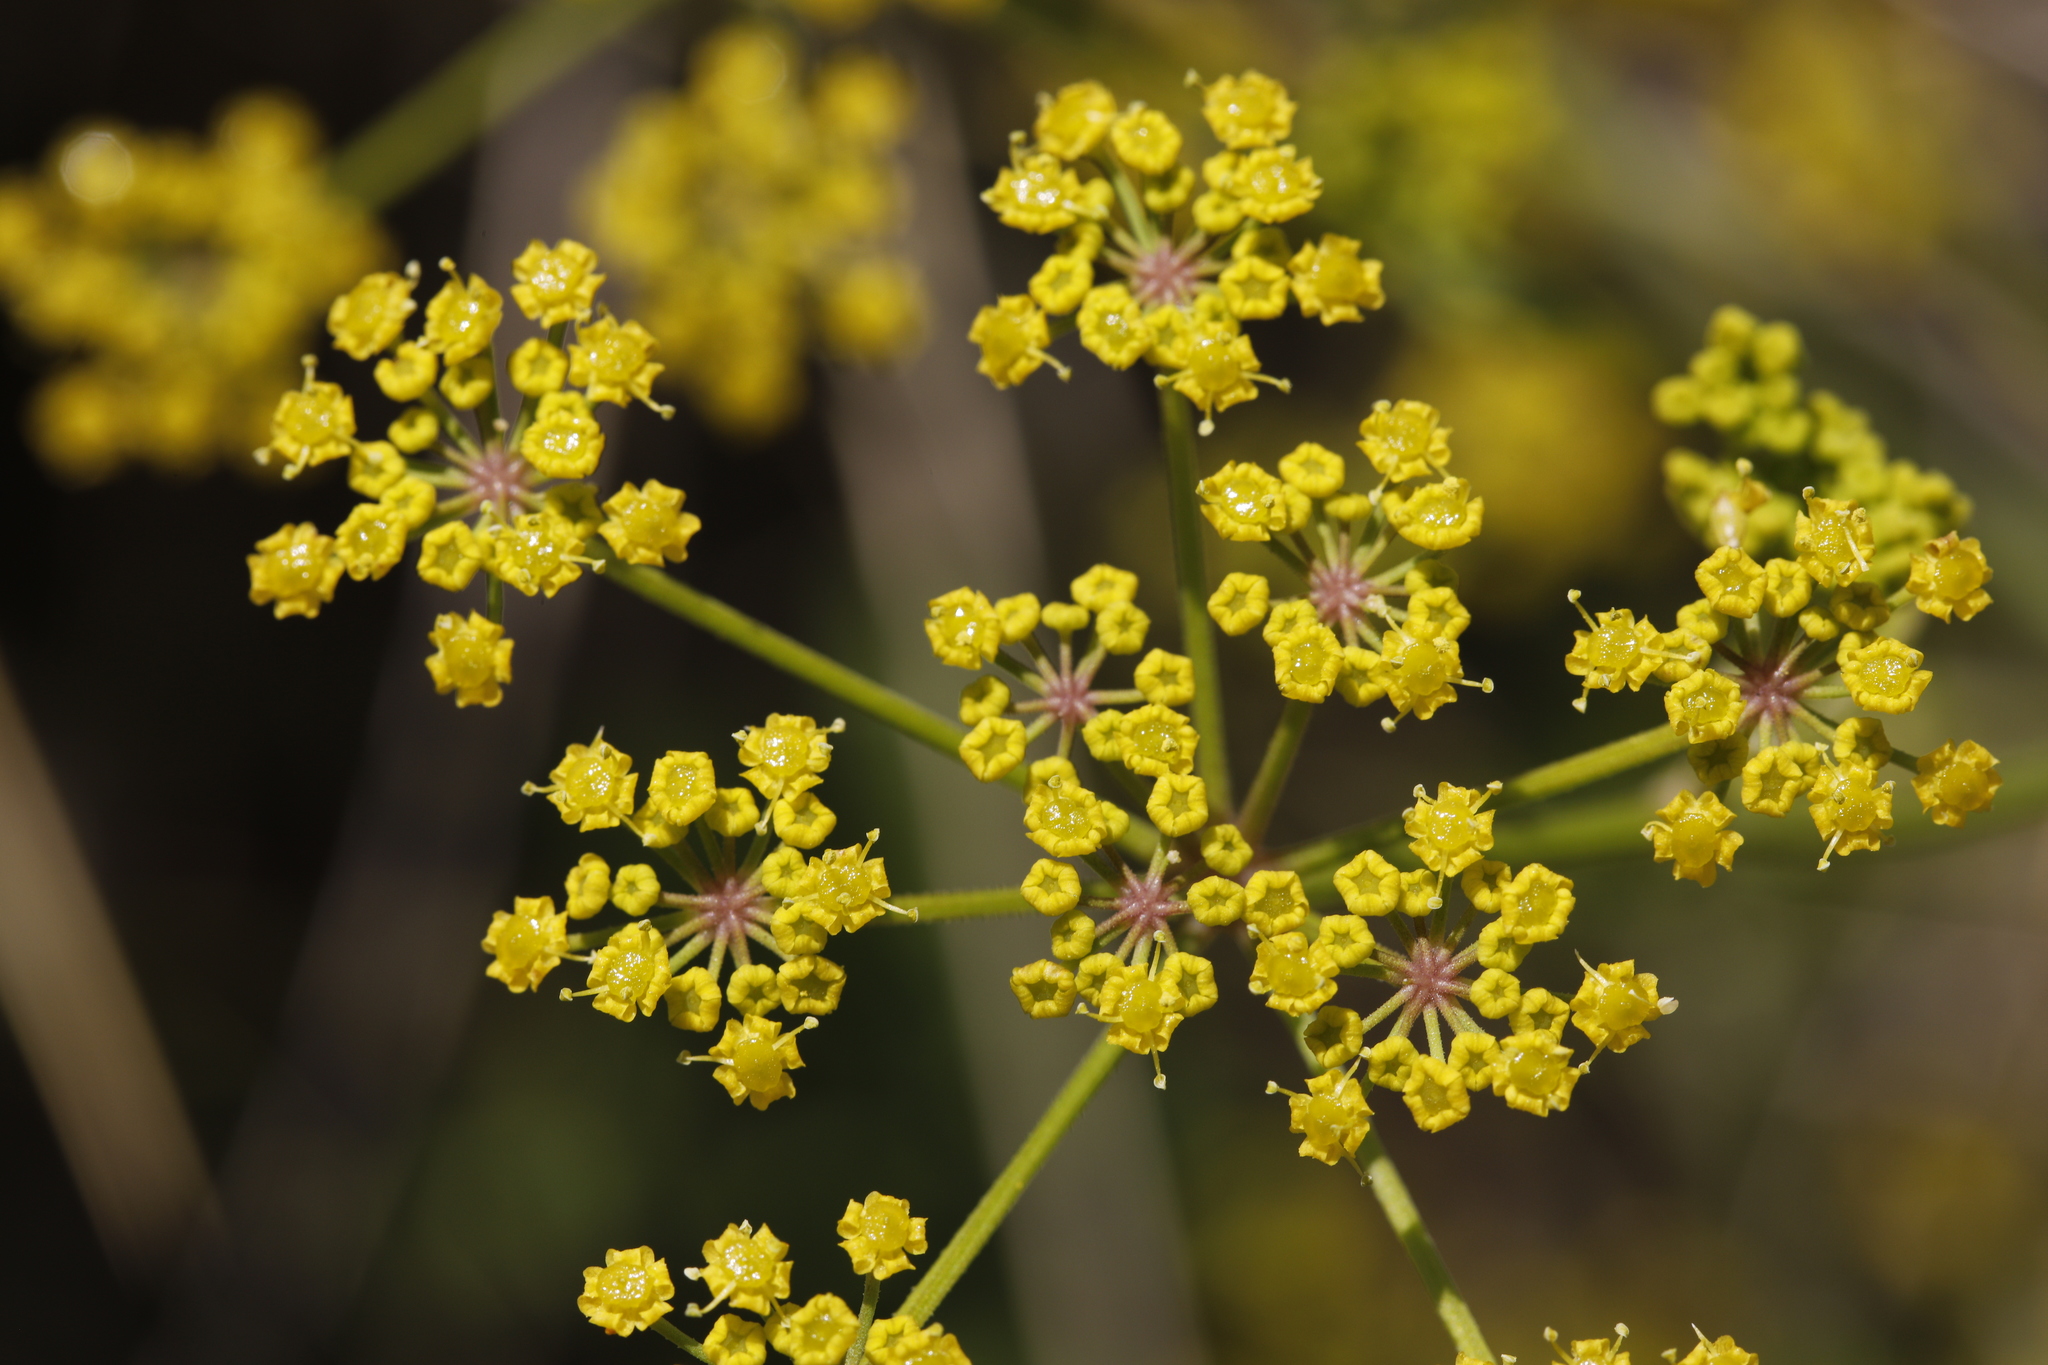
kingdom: Plantae
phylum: Tracheophyta
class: Magnoliopsida
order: Apiales
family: Apiaceae
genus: Foeniculum
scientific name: Foeniculum vulgare
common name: Fennel
